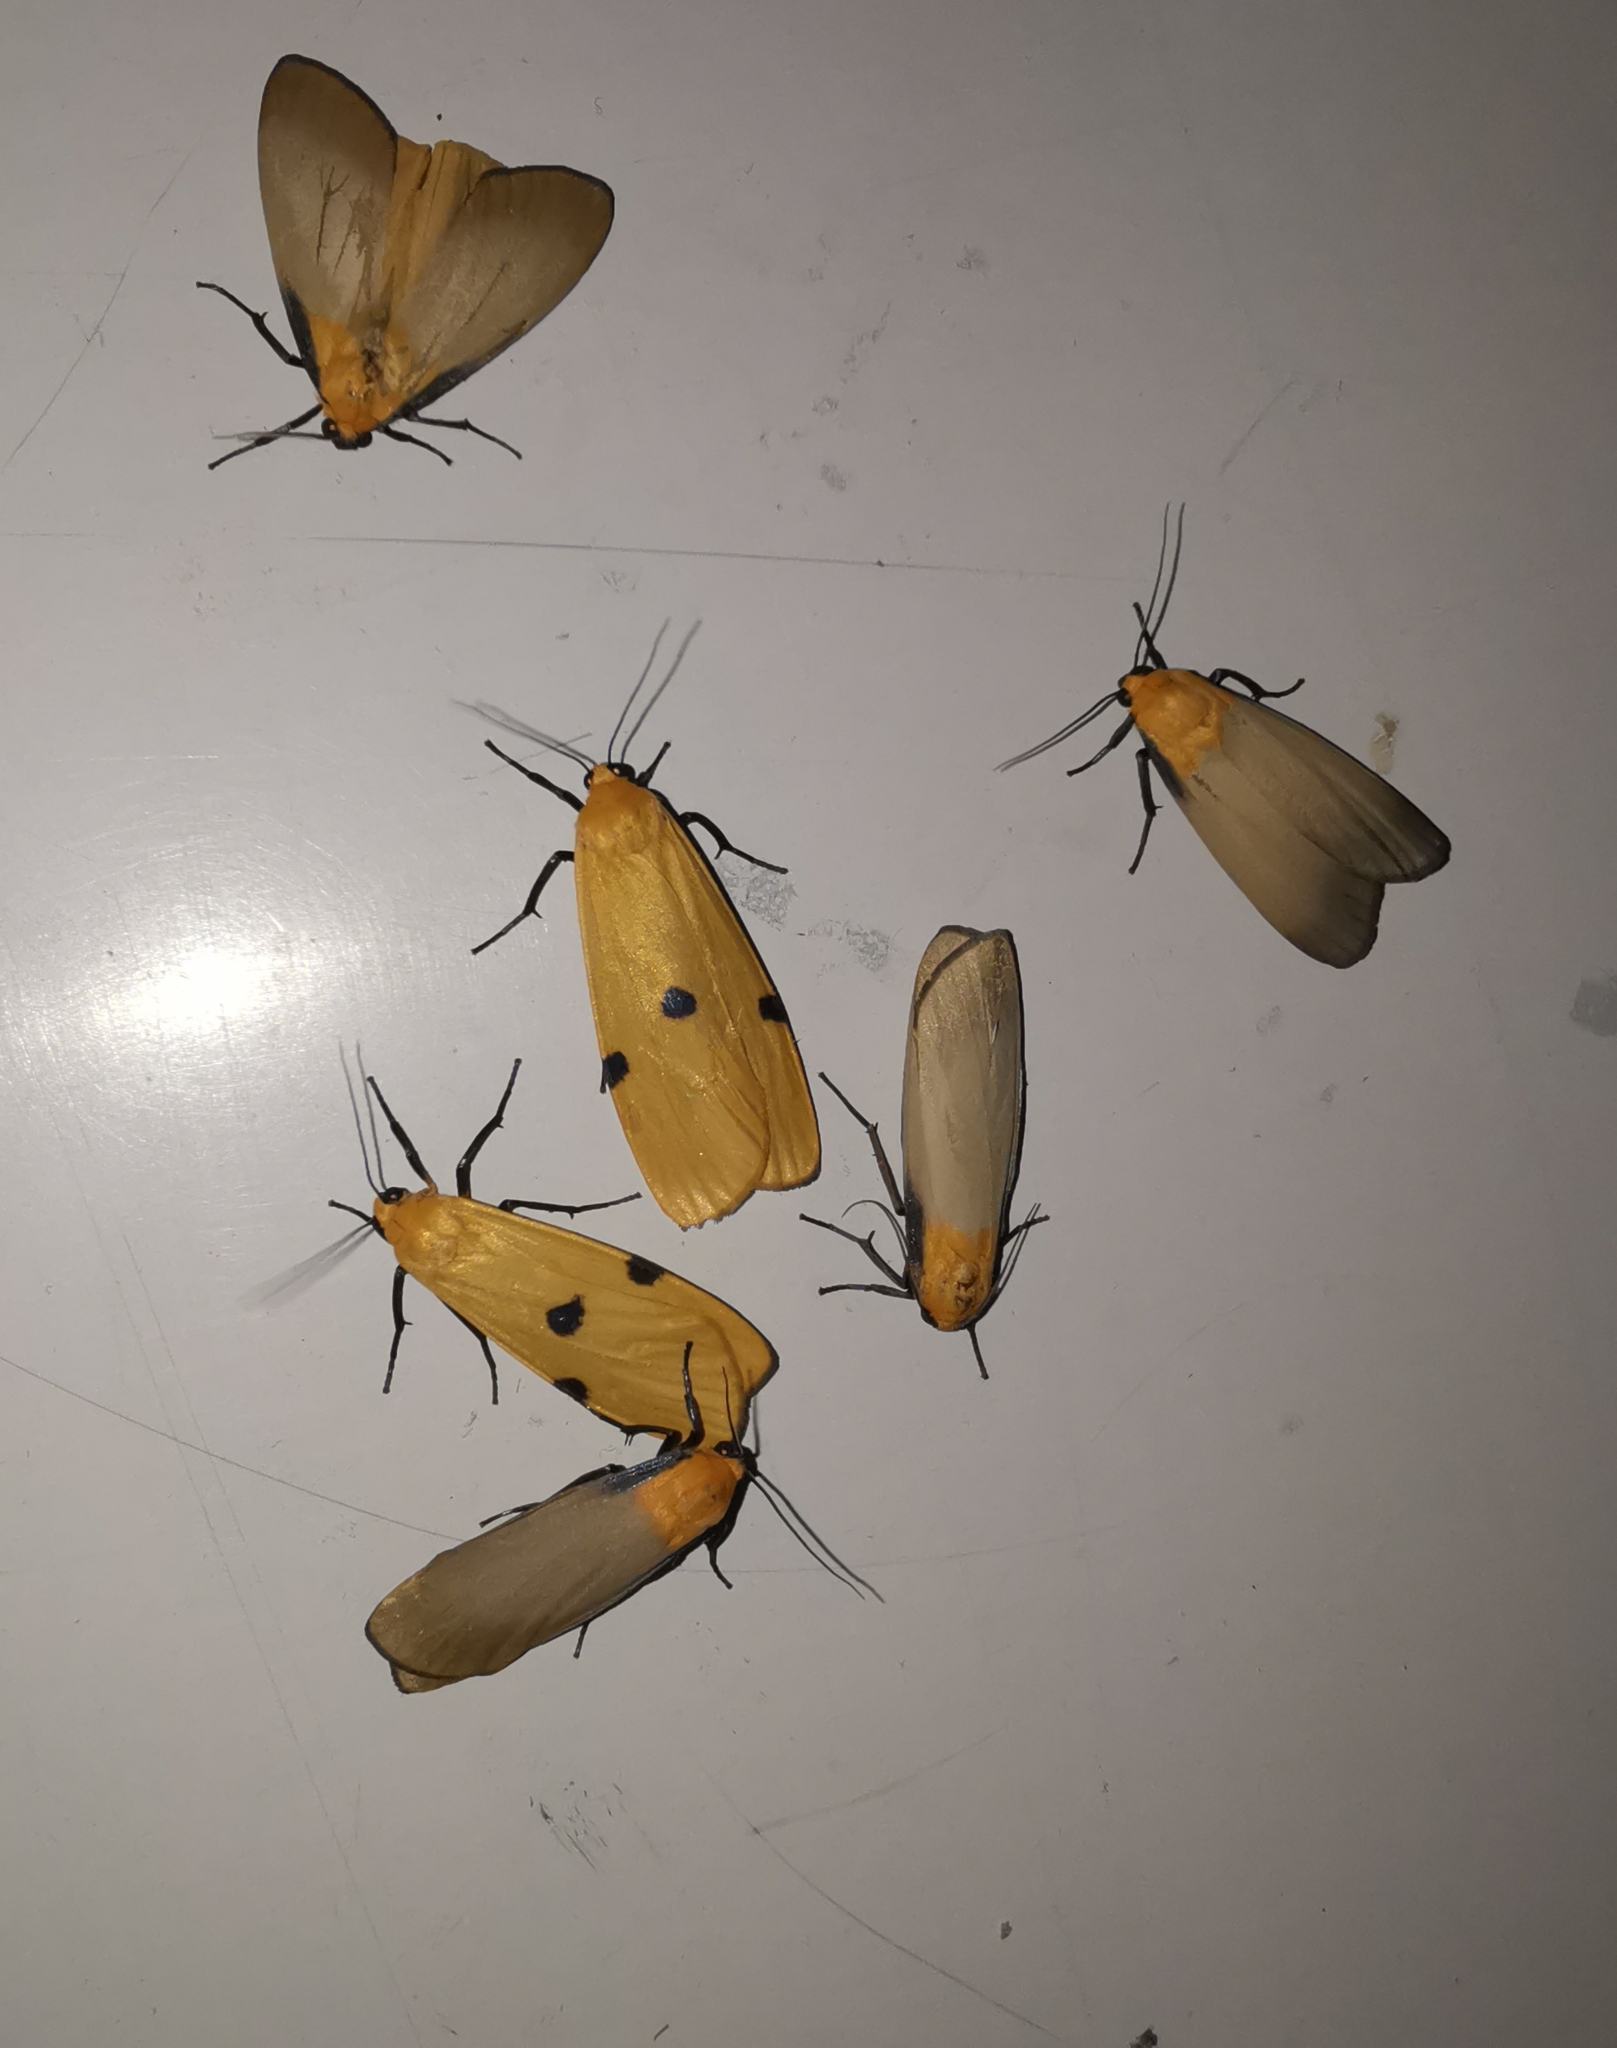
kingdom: Animalia
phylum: Arthropoda
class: Insecta
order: Lepidoptera
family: Erebidae
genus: Lithosia
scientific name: Lithosia quadra
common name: Four-spotted footman
